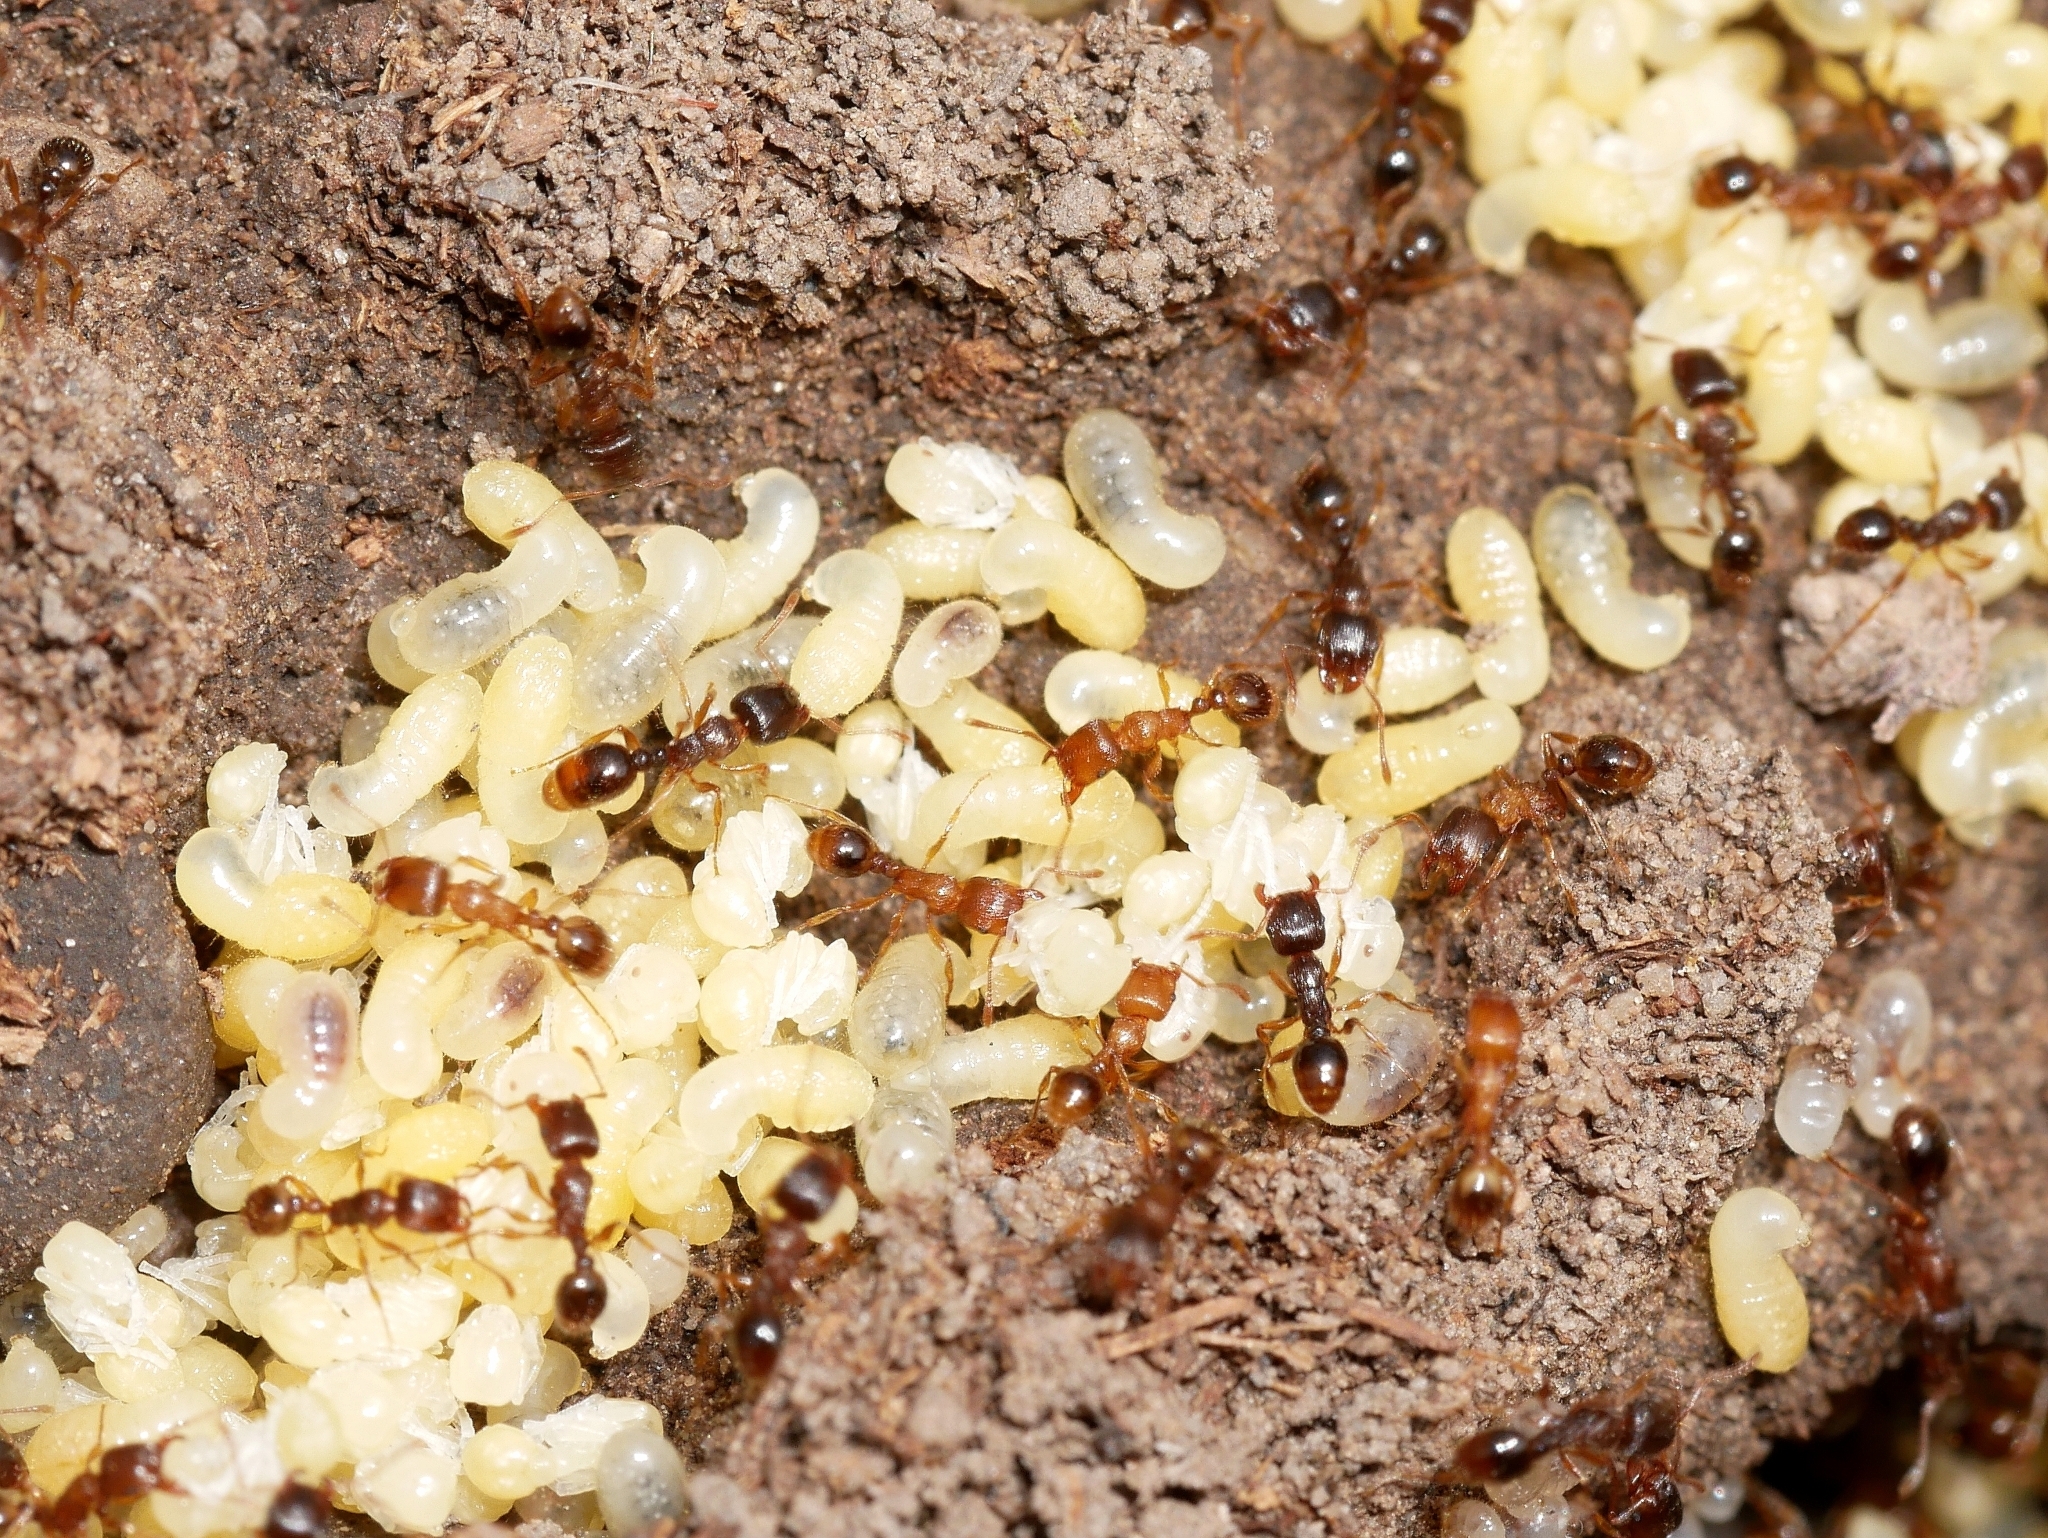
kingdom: Animalia
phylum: Arthropoda
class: Insecta
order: Hymenoptera
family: Formicidae
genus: Tetramorium
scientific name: Tetramorium immigrans
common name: Pavement ant
